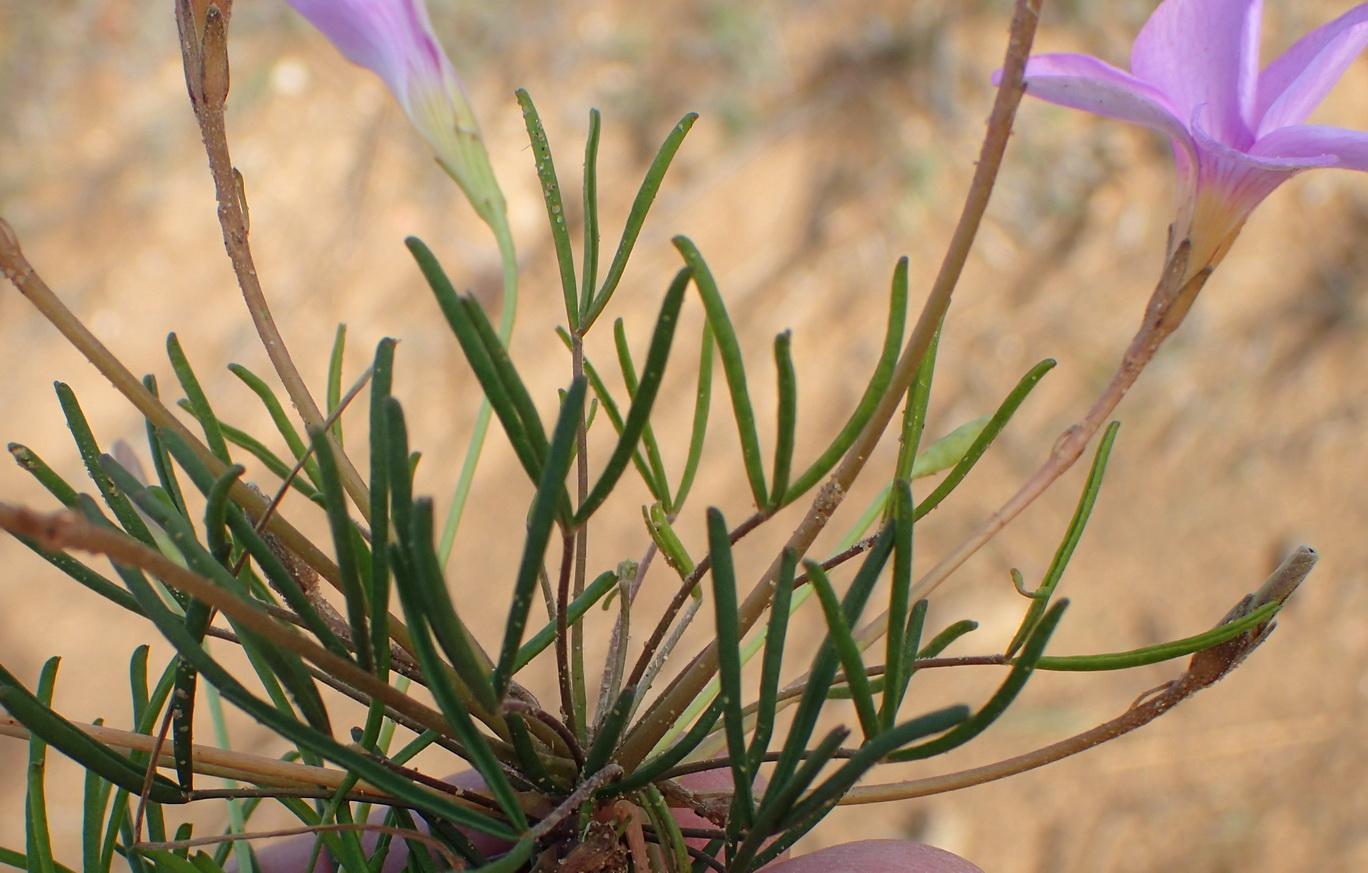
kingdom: Plantae
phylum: Tracheophyta
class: Magnoliopsida
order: Oxalidales
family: Oxalidaceae
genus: Oxalis
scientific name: Oxalis polyphylla
